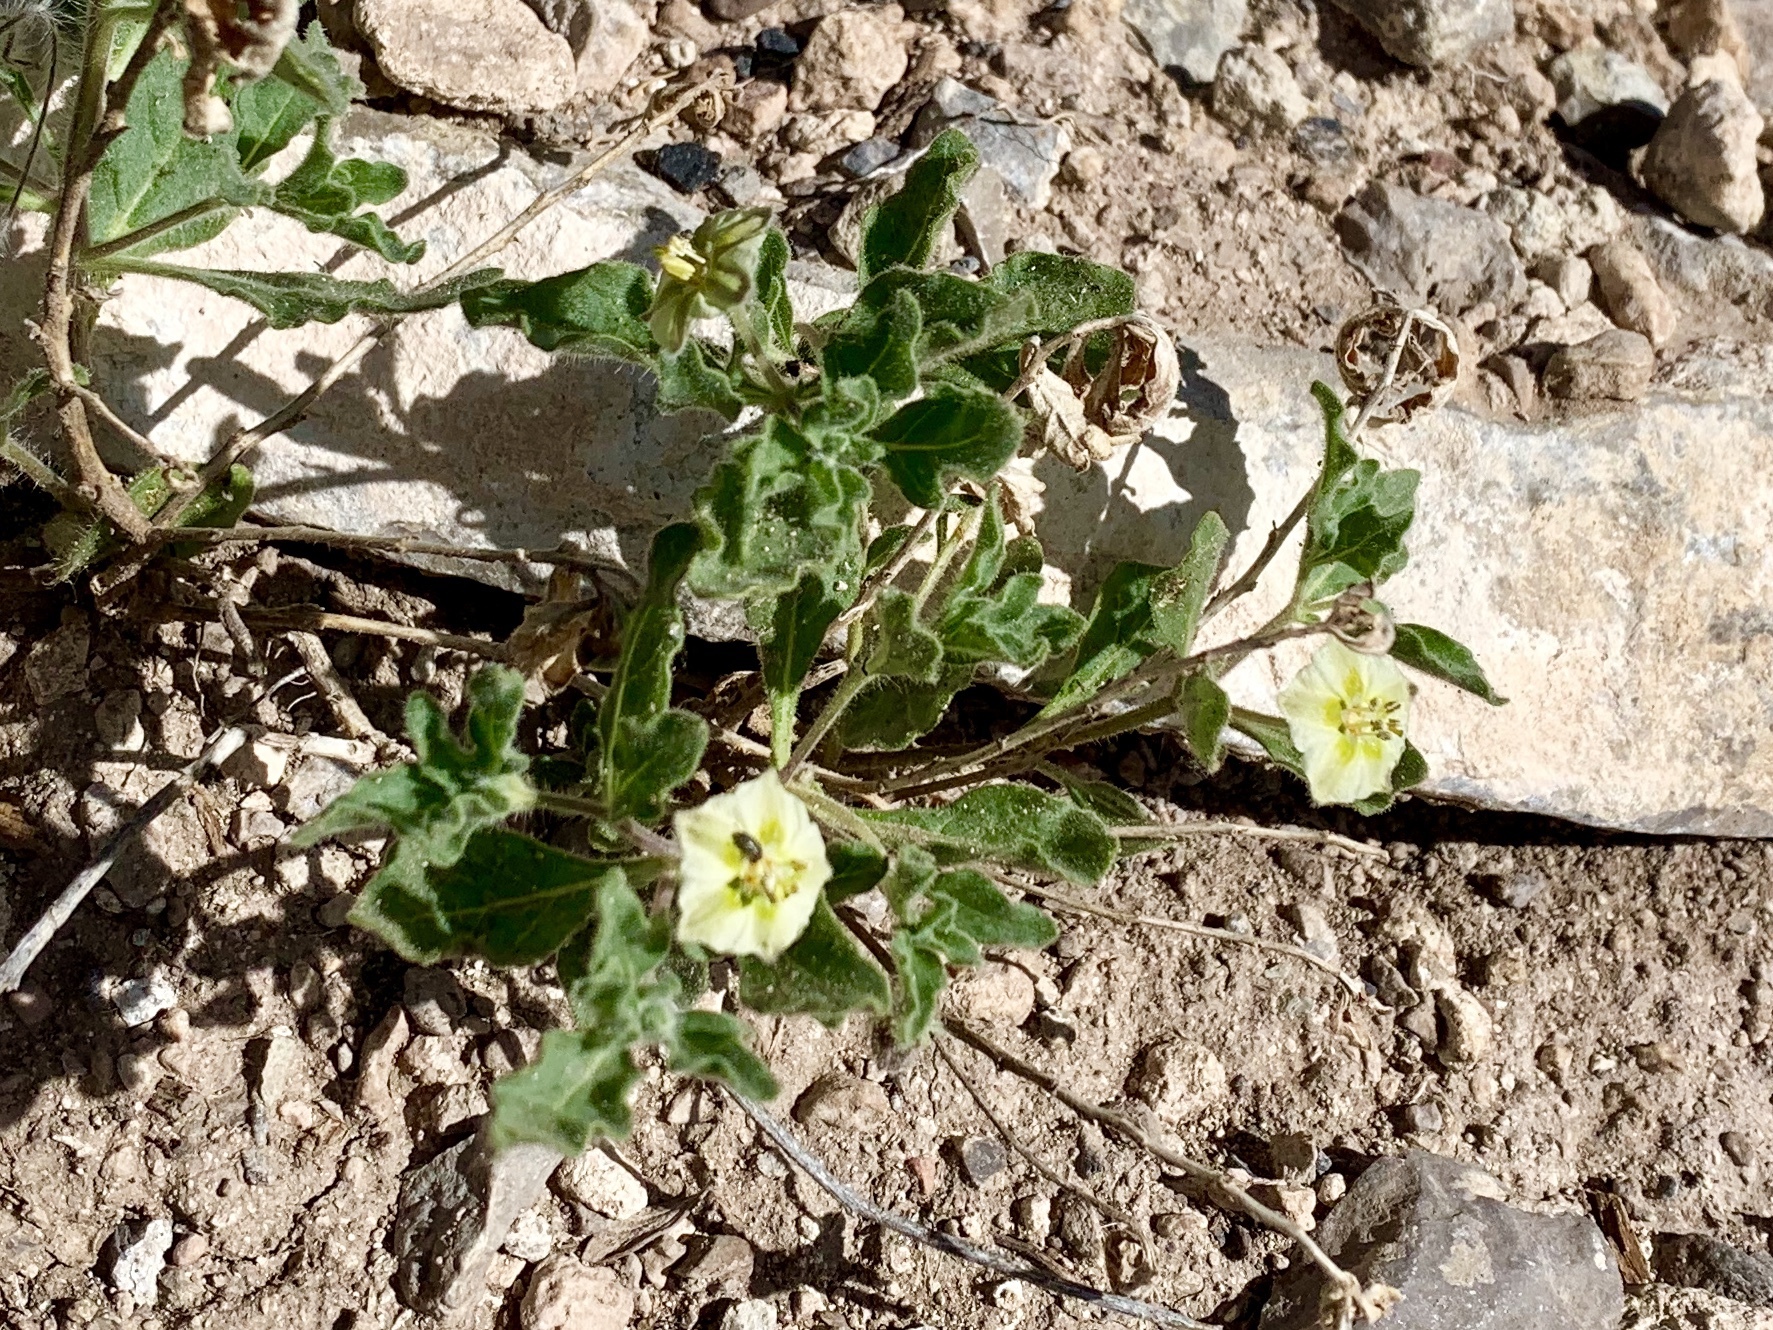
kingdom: Plantae
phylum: Tracheophyta
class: Magnoliopsida
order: Solanales
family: Solanaceae
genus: Chamaesaracha
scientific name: Chamaesaracha sordida
